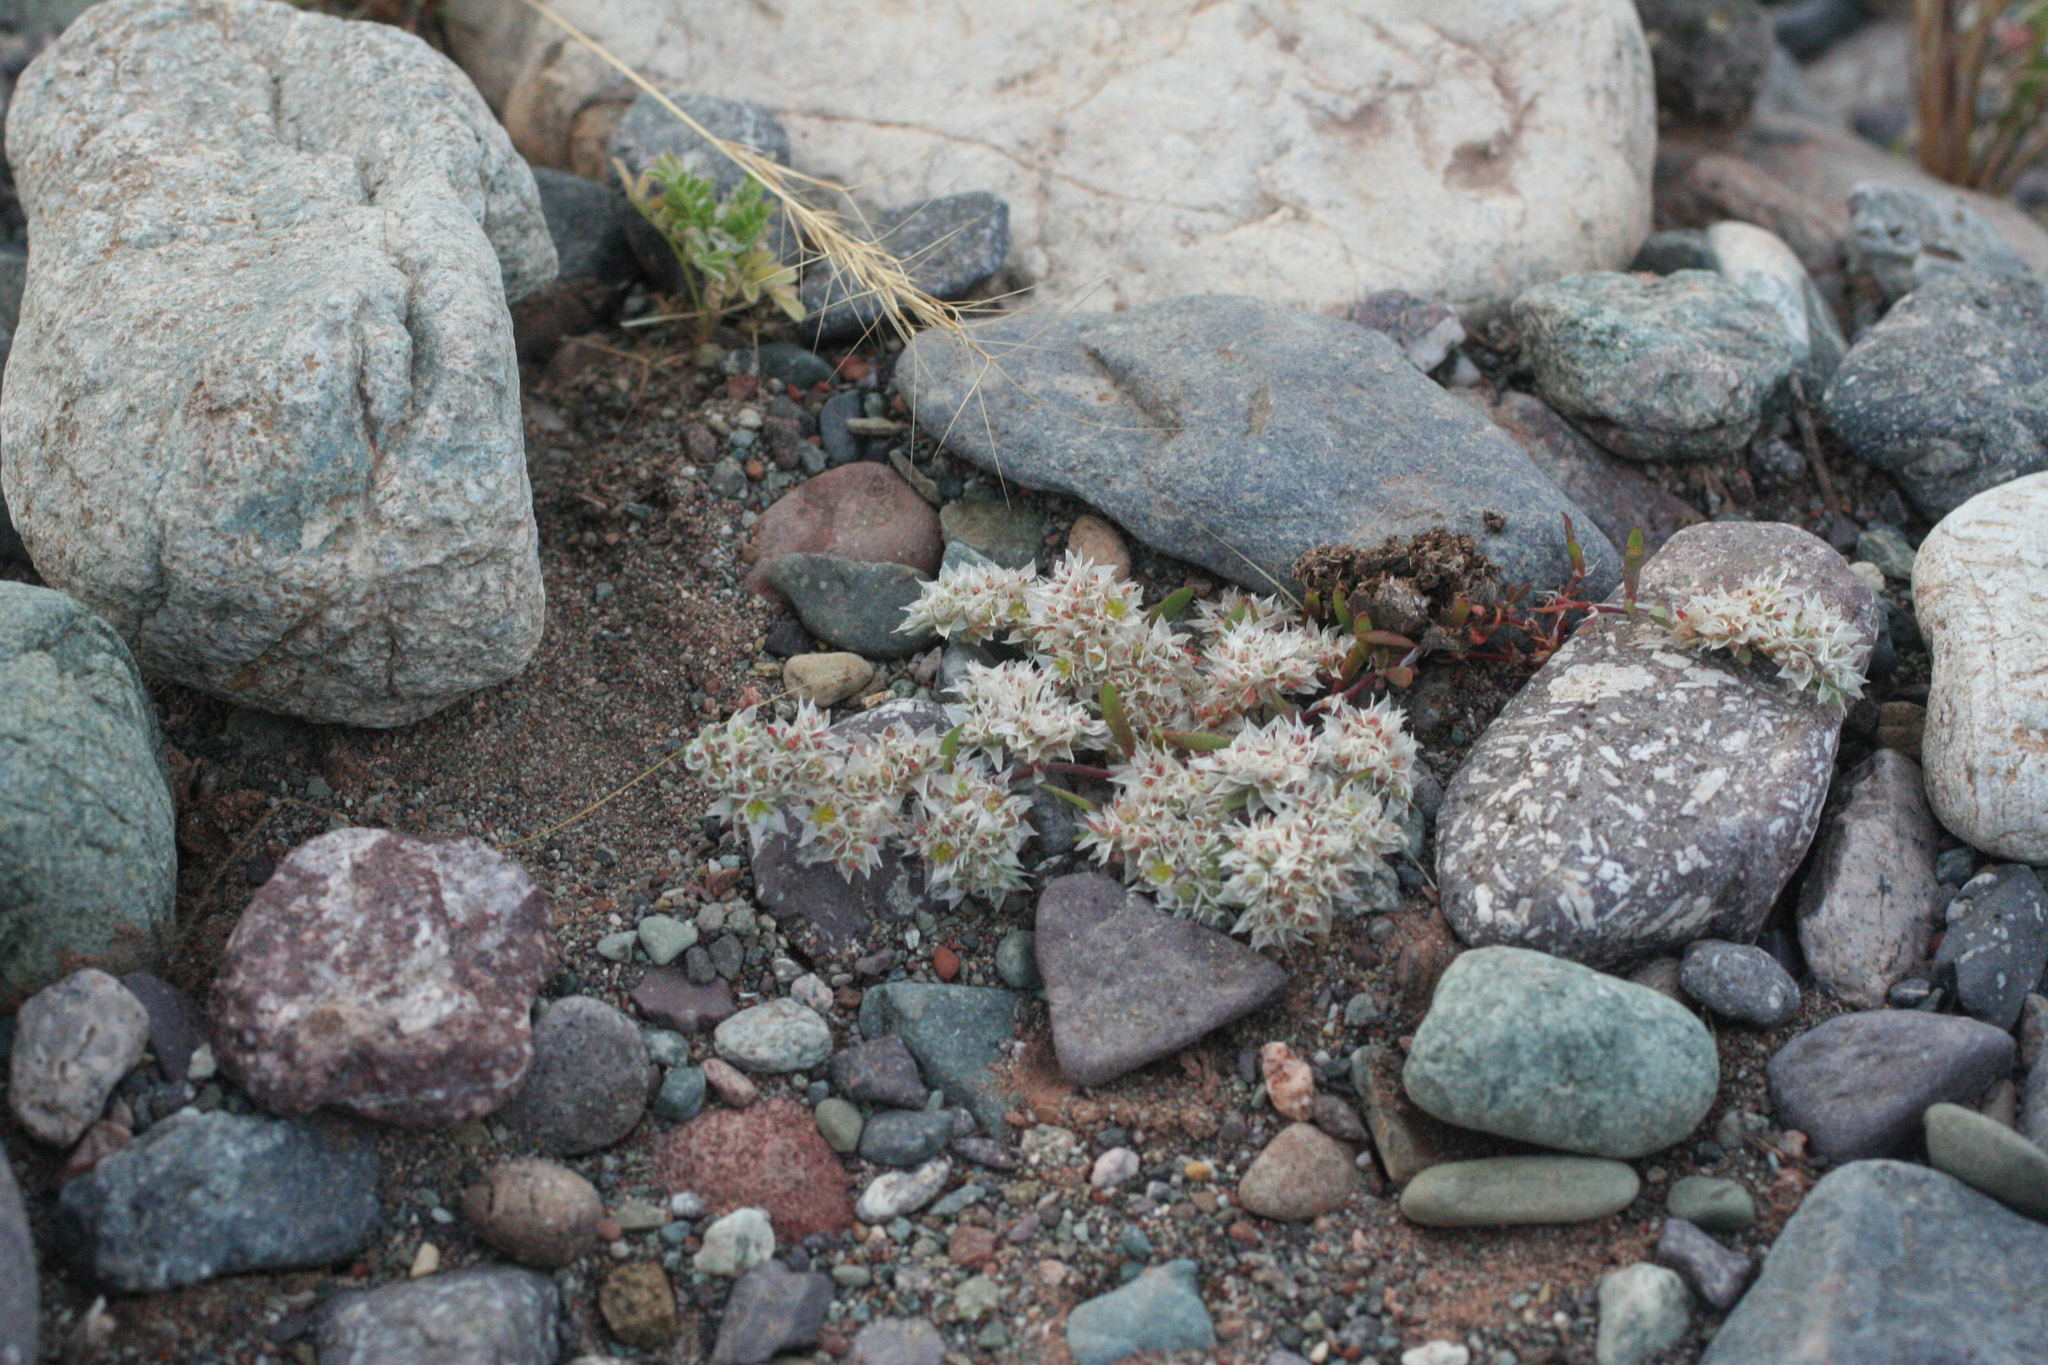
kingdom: Plantae
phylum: Tracheophyta
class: Magnoliopsida
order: Caryophyllales
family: Caryophyllaceae
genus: Paronychia
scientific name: Paronychia argentea
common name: Silver nailroot
